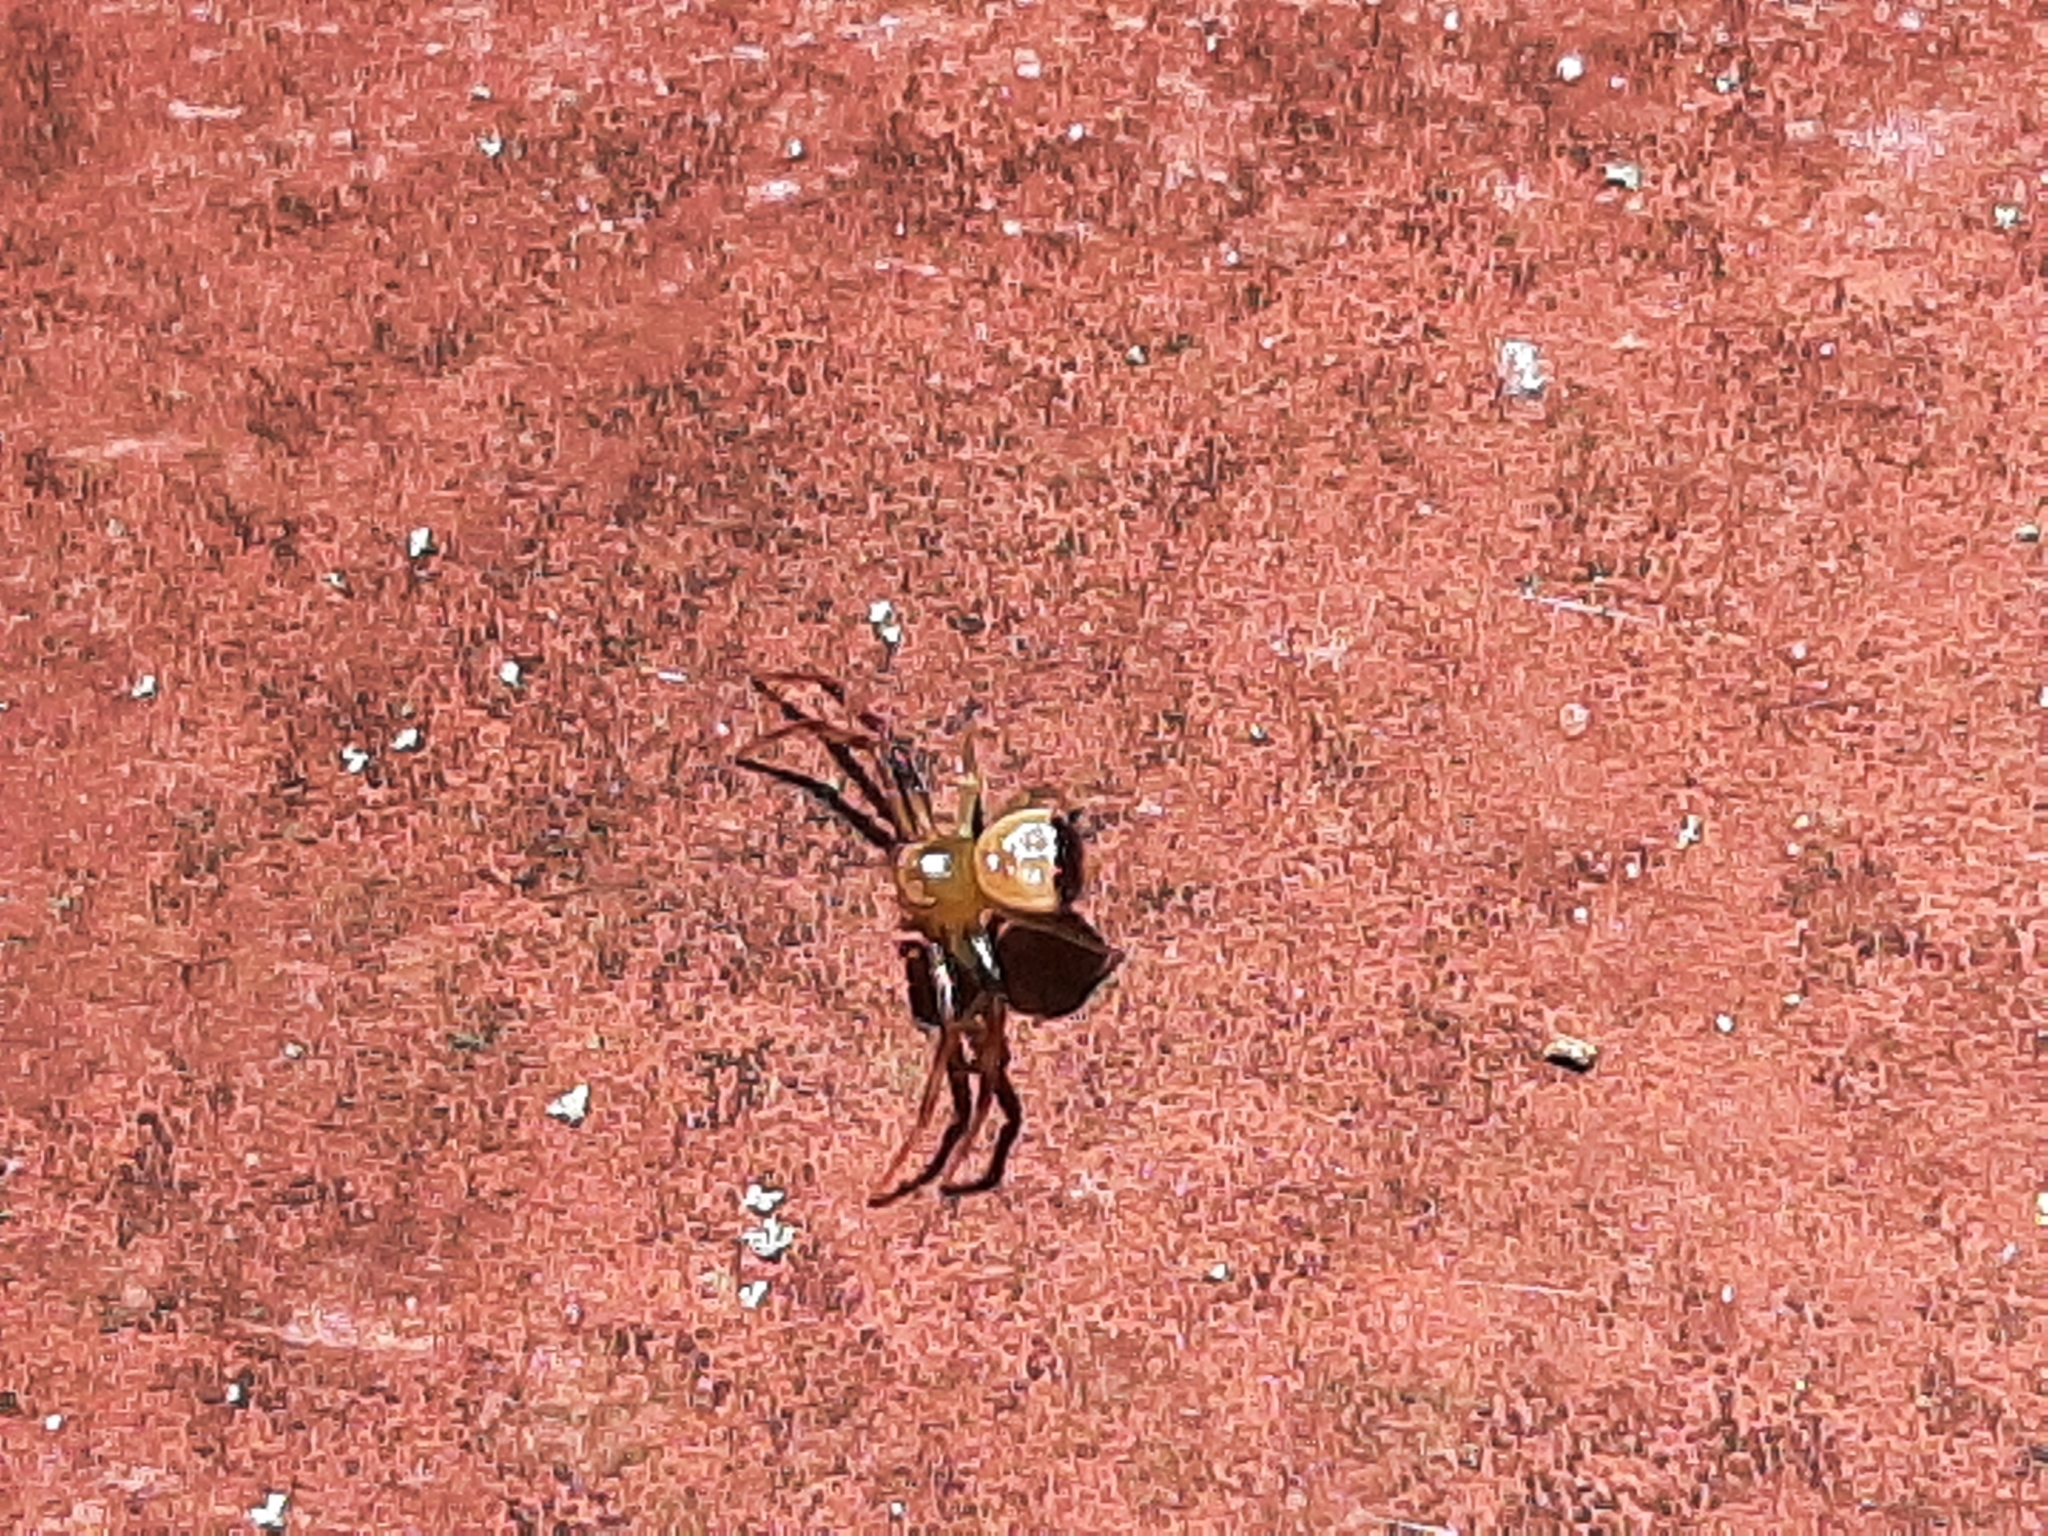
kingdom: Animalia
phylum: Arthropoda
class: Arachnida
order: Araneae
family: Thomisidae
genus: Synema
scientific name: Synema parvulum
